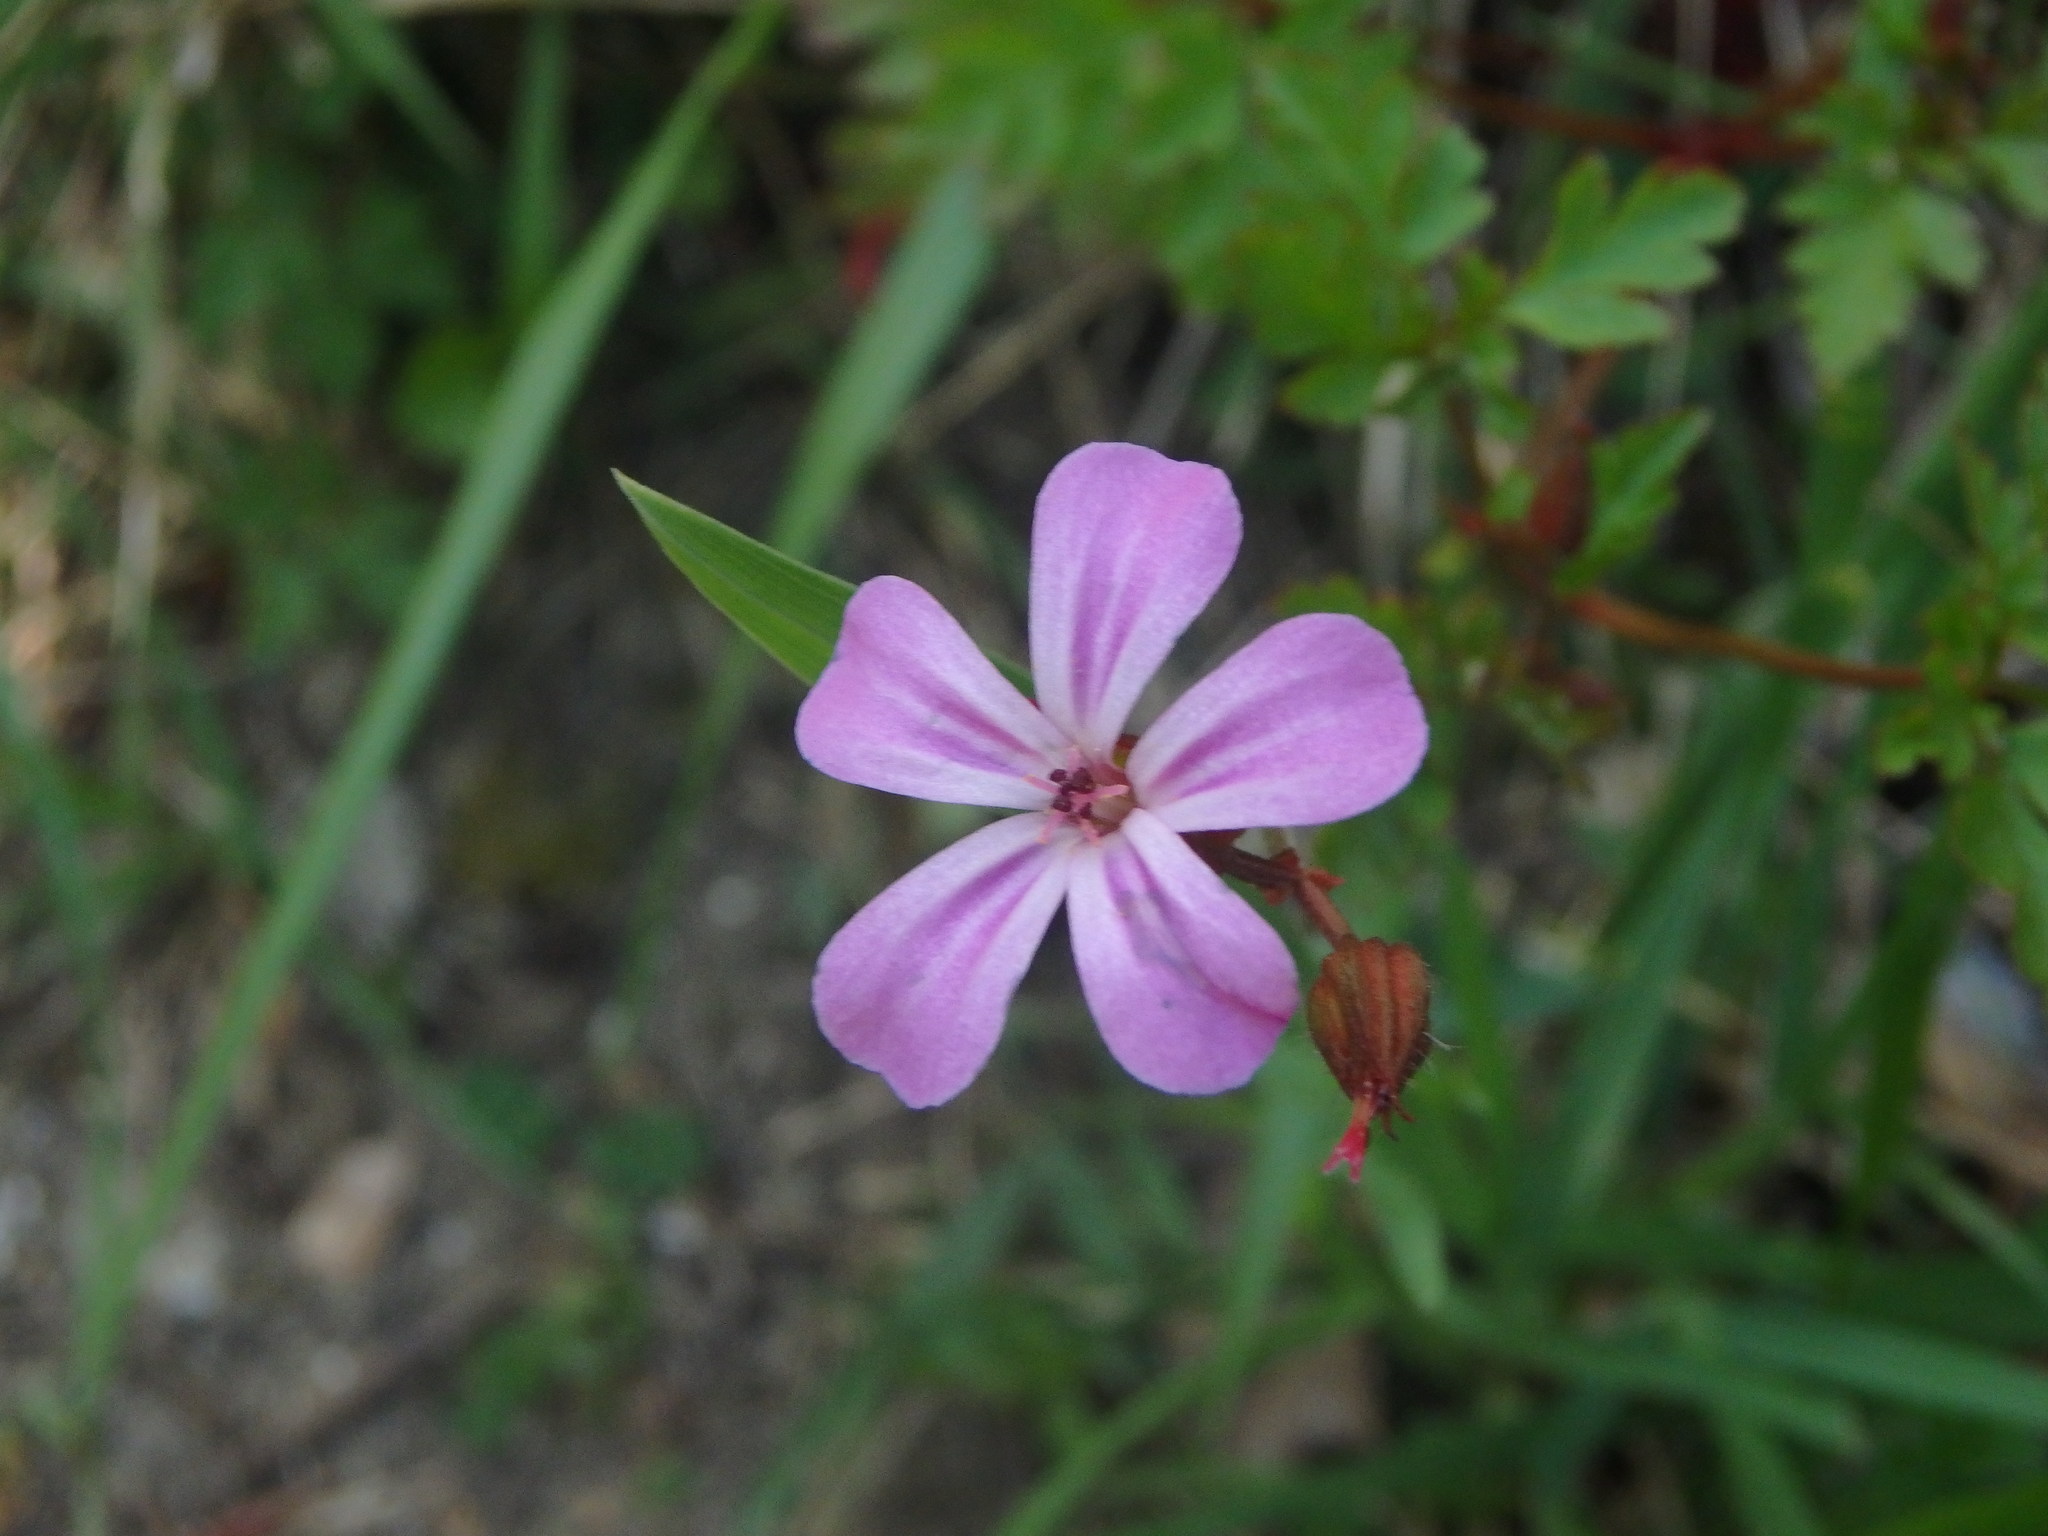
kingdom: Plantae
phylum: Tracheophyta
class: Magnoliopsida
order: Geraniales
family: Geraniaceae
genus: Geranium
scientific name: Geranium robertianum
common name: Herb-robert
